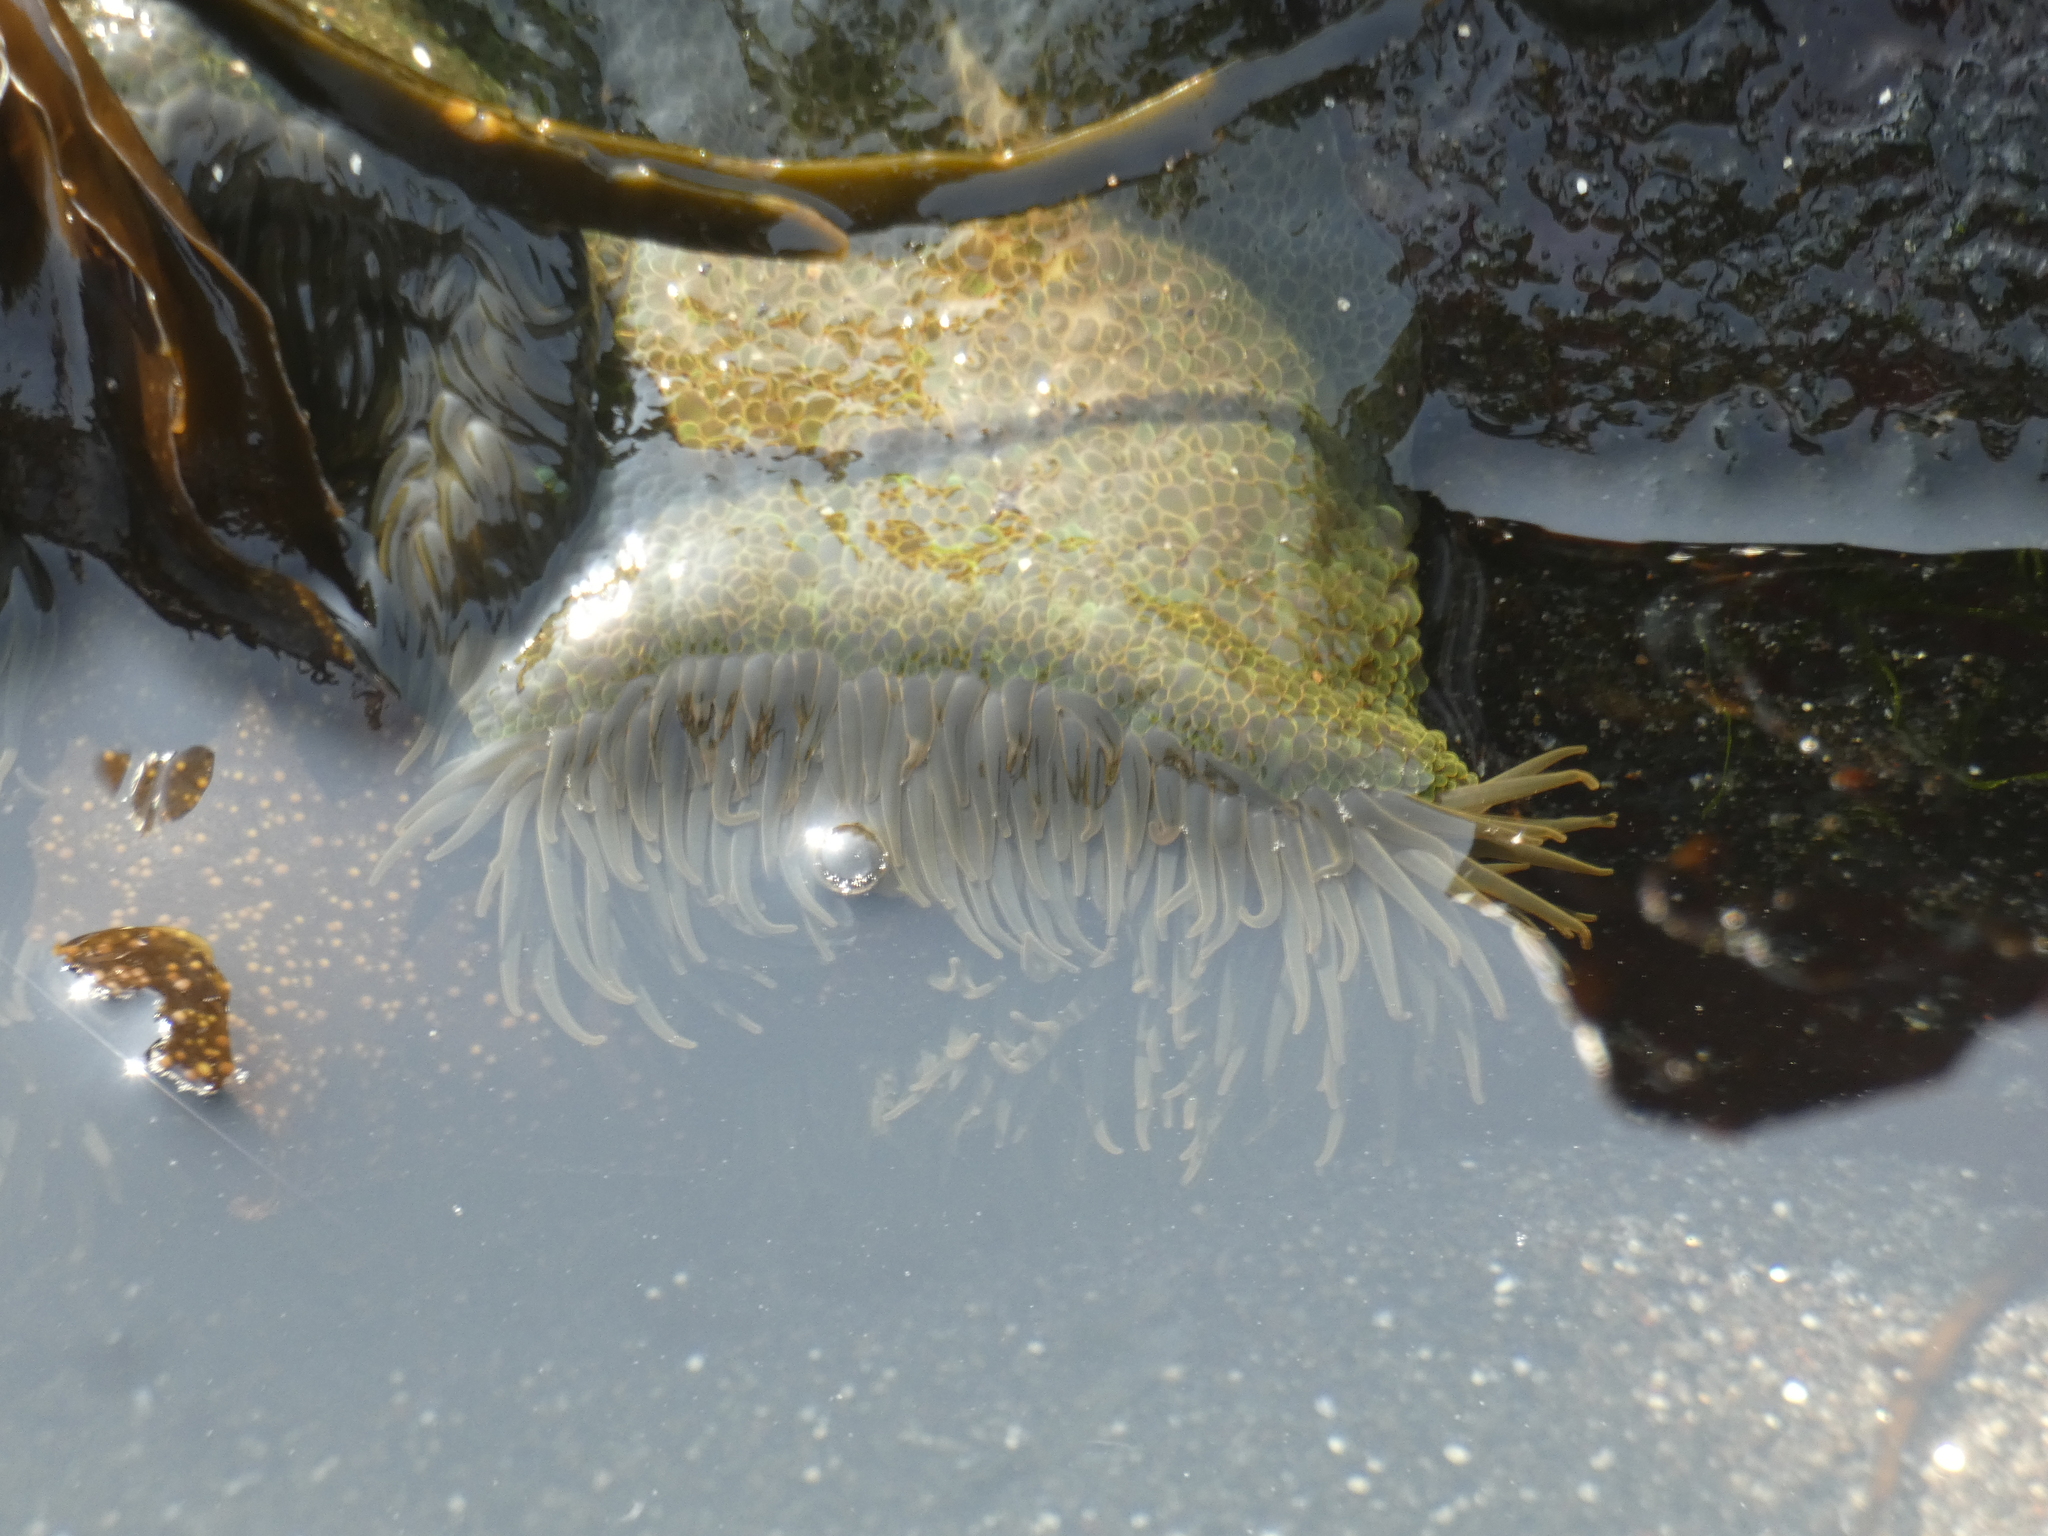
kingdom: Animalia
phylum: Cnidaria
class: Anthozoa
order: Actiniaria
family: Actiniidae
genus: Phymactis
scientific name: Phymactis papillosa
